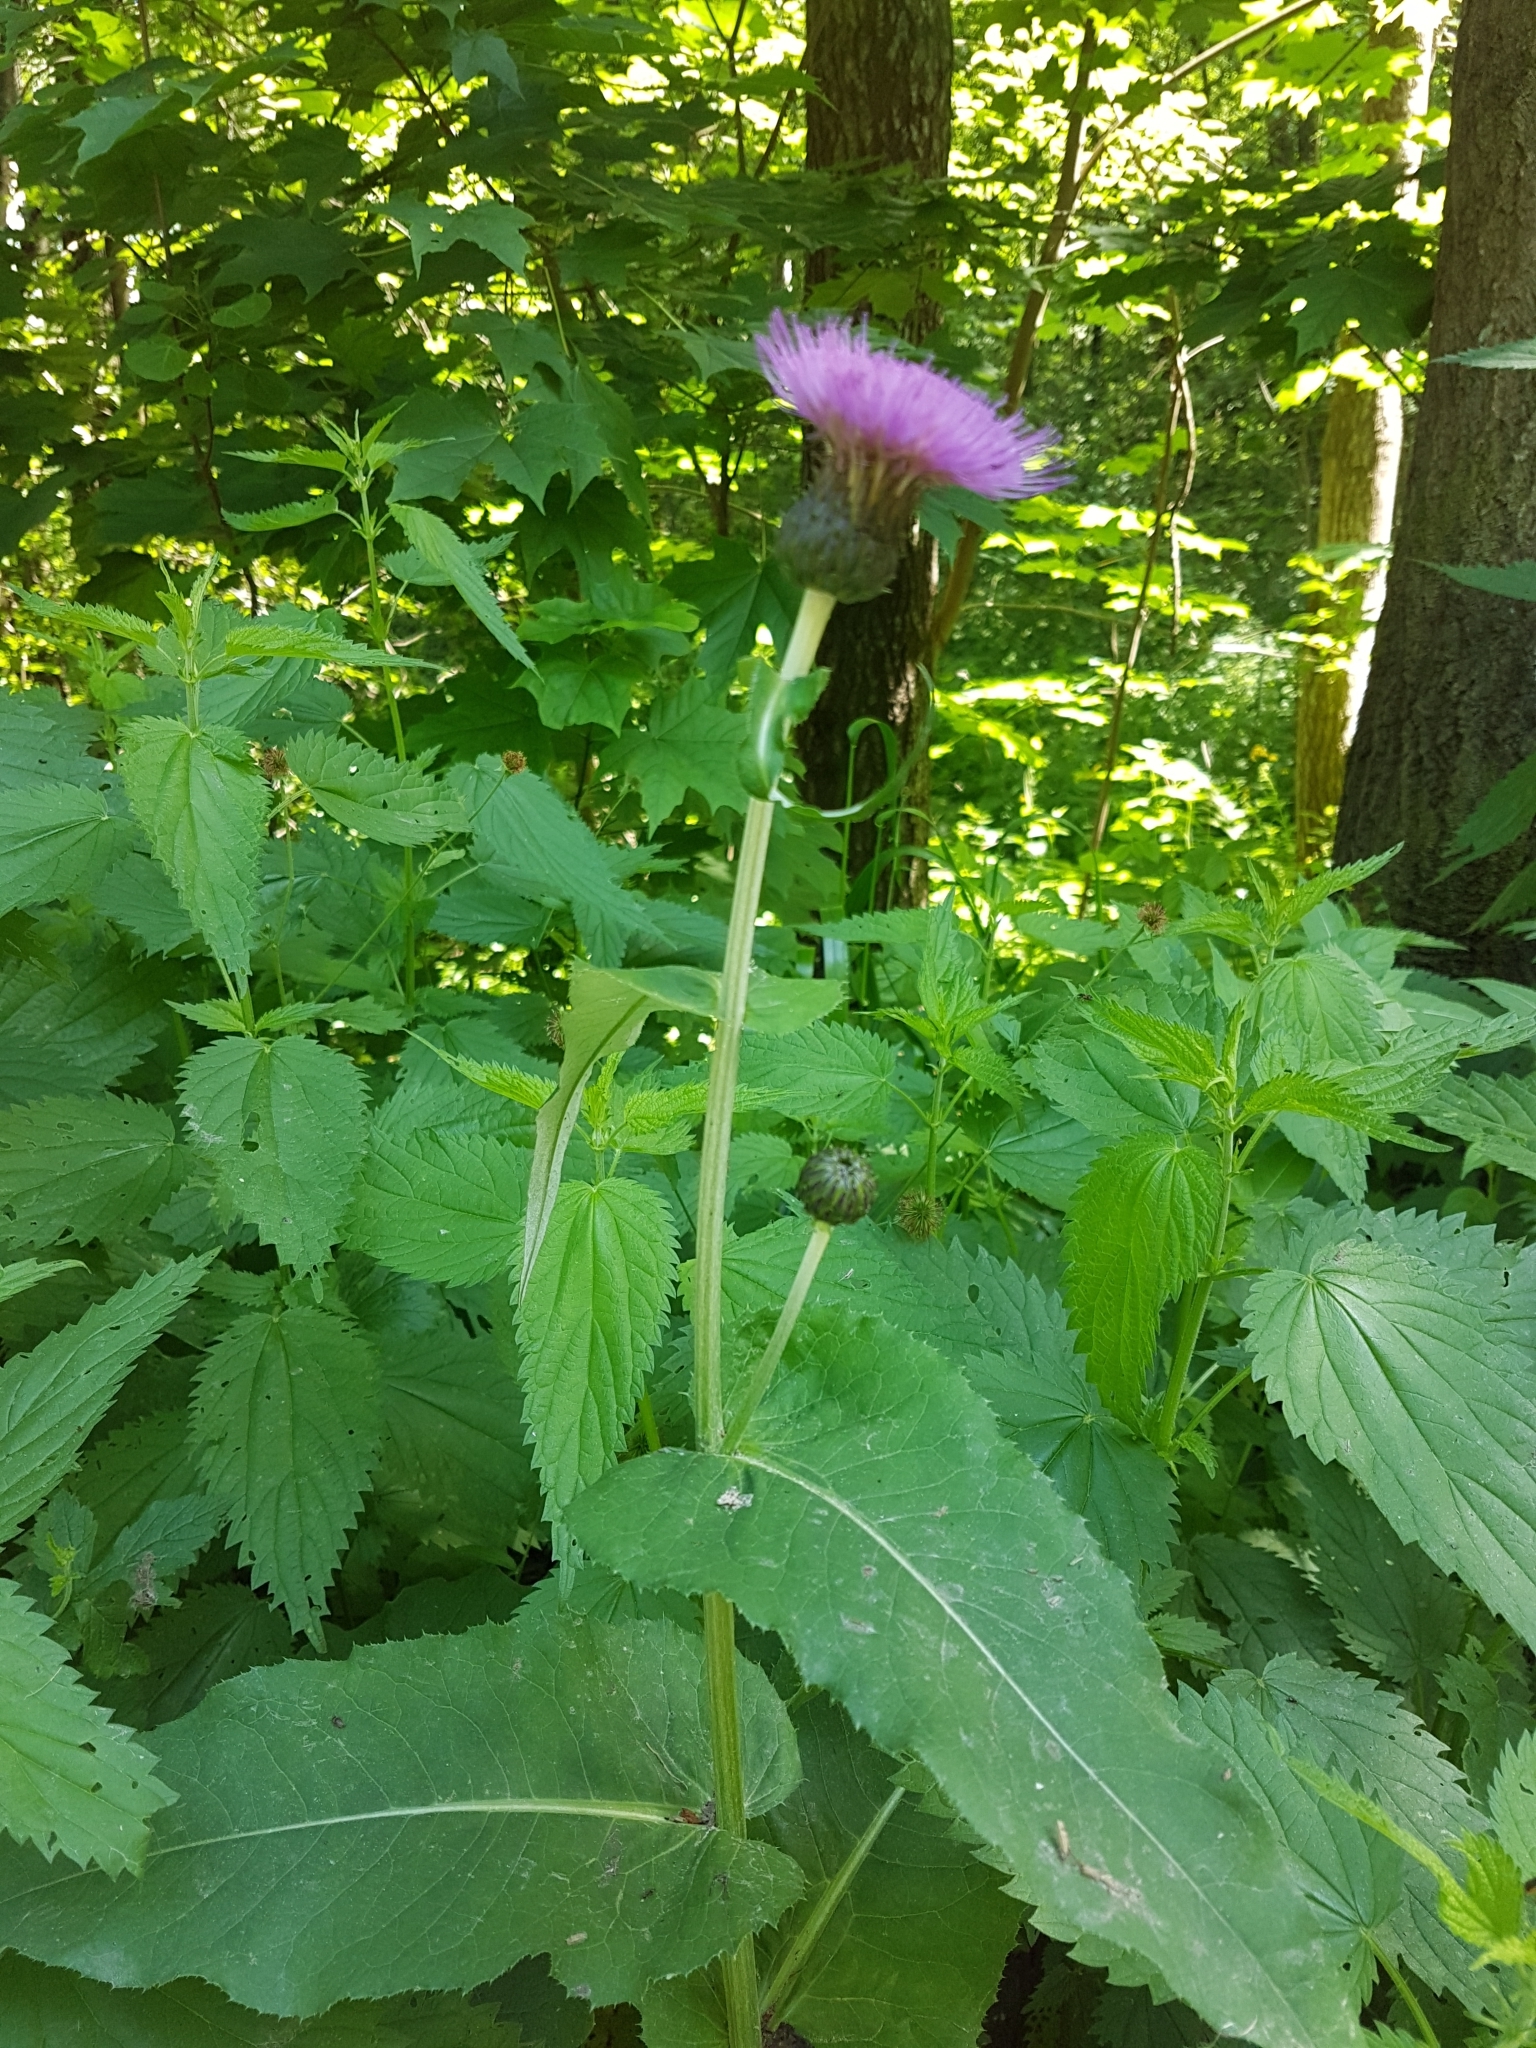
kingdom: Plantae
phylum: Tracheophyta
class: Magnoliopsida
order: Asterales
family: Asteraceae
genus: Cirsium
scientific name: Cirsium heterophyllum
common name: Melancholy thistle
